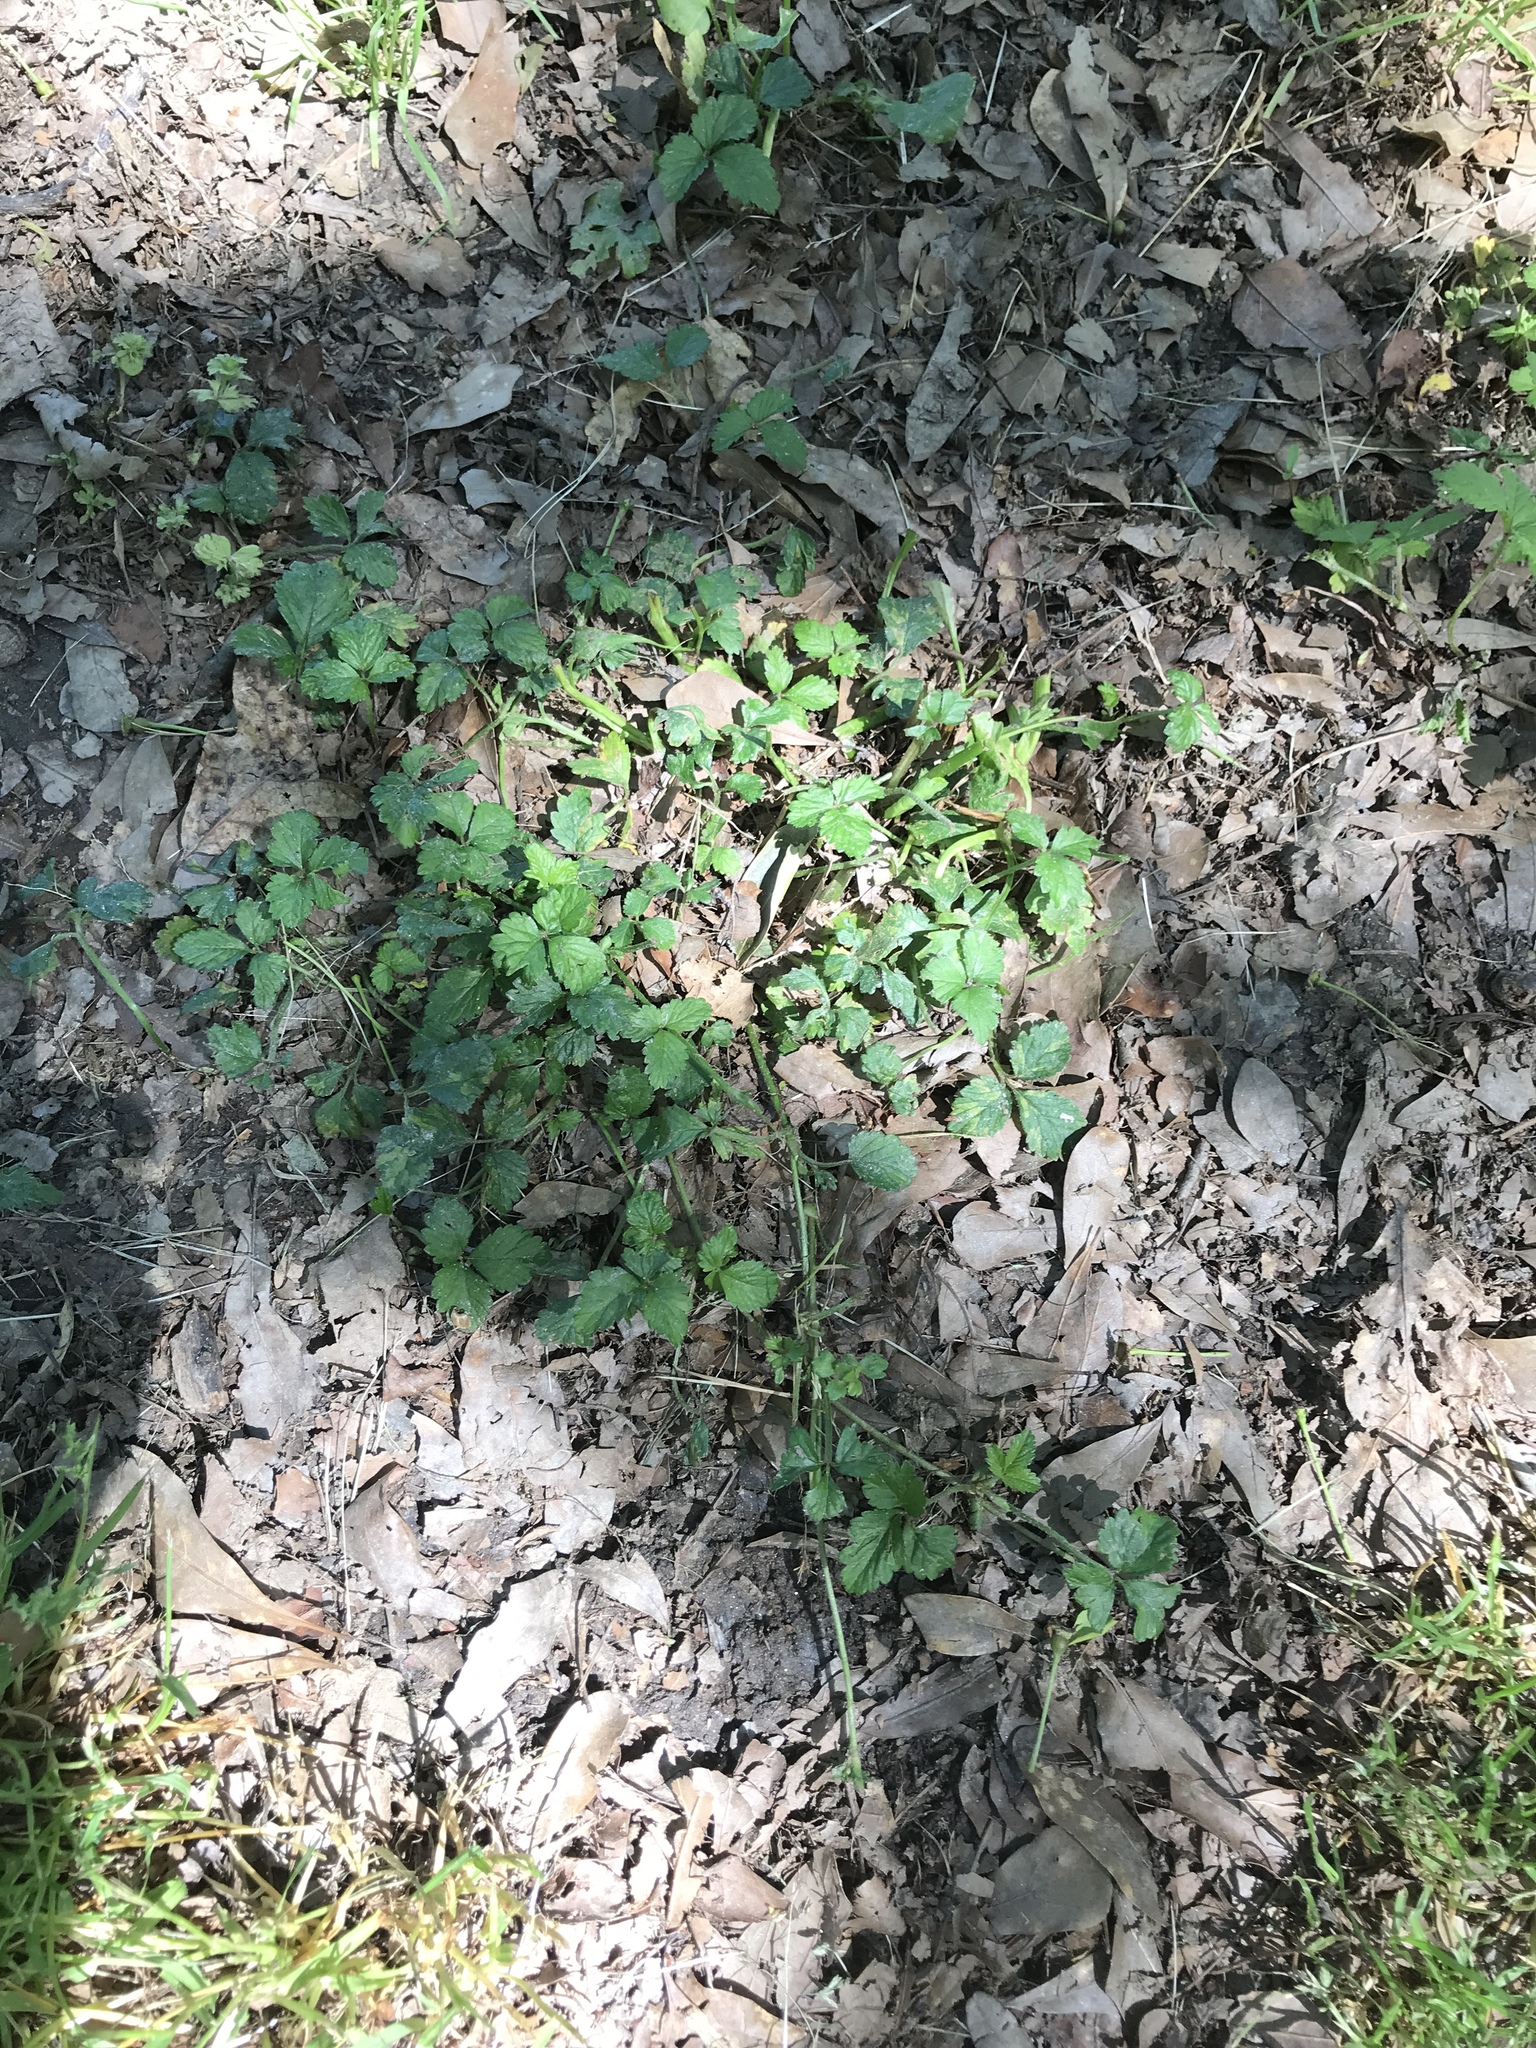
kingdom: Plantae
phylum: Tracheophyta
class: Magnoliopsida
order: Rosales
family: Rosaceae
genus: Potentilla
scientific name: Potentilla indica
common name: Yellow-flowered strawberry
